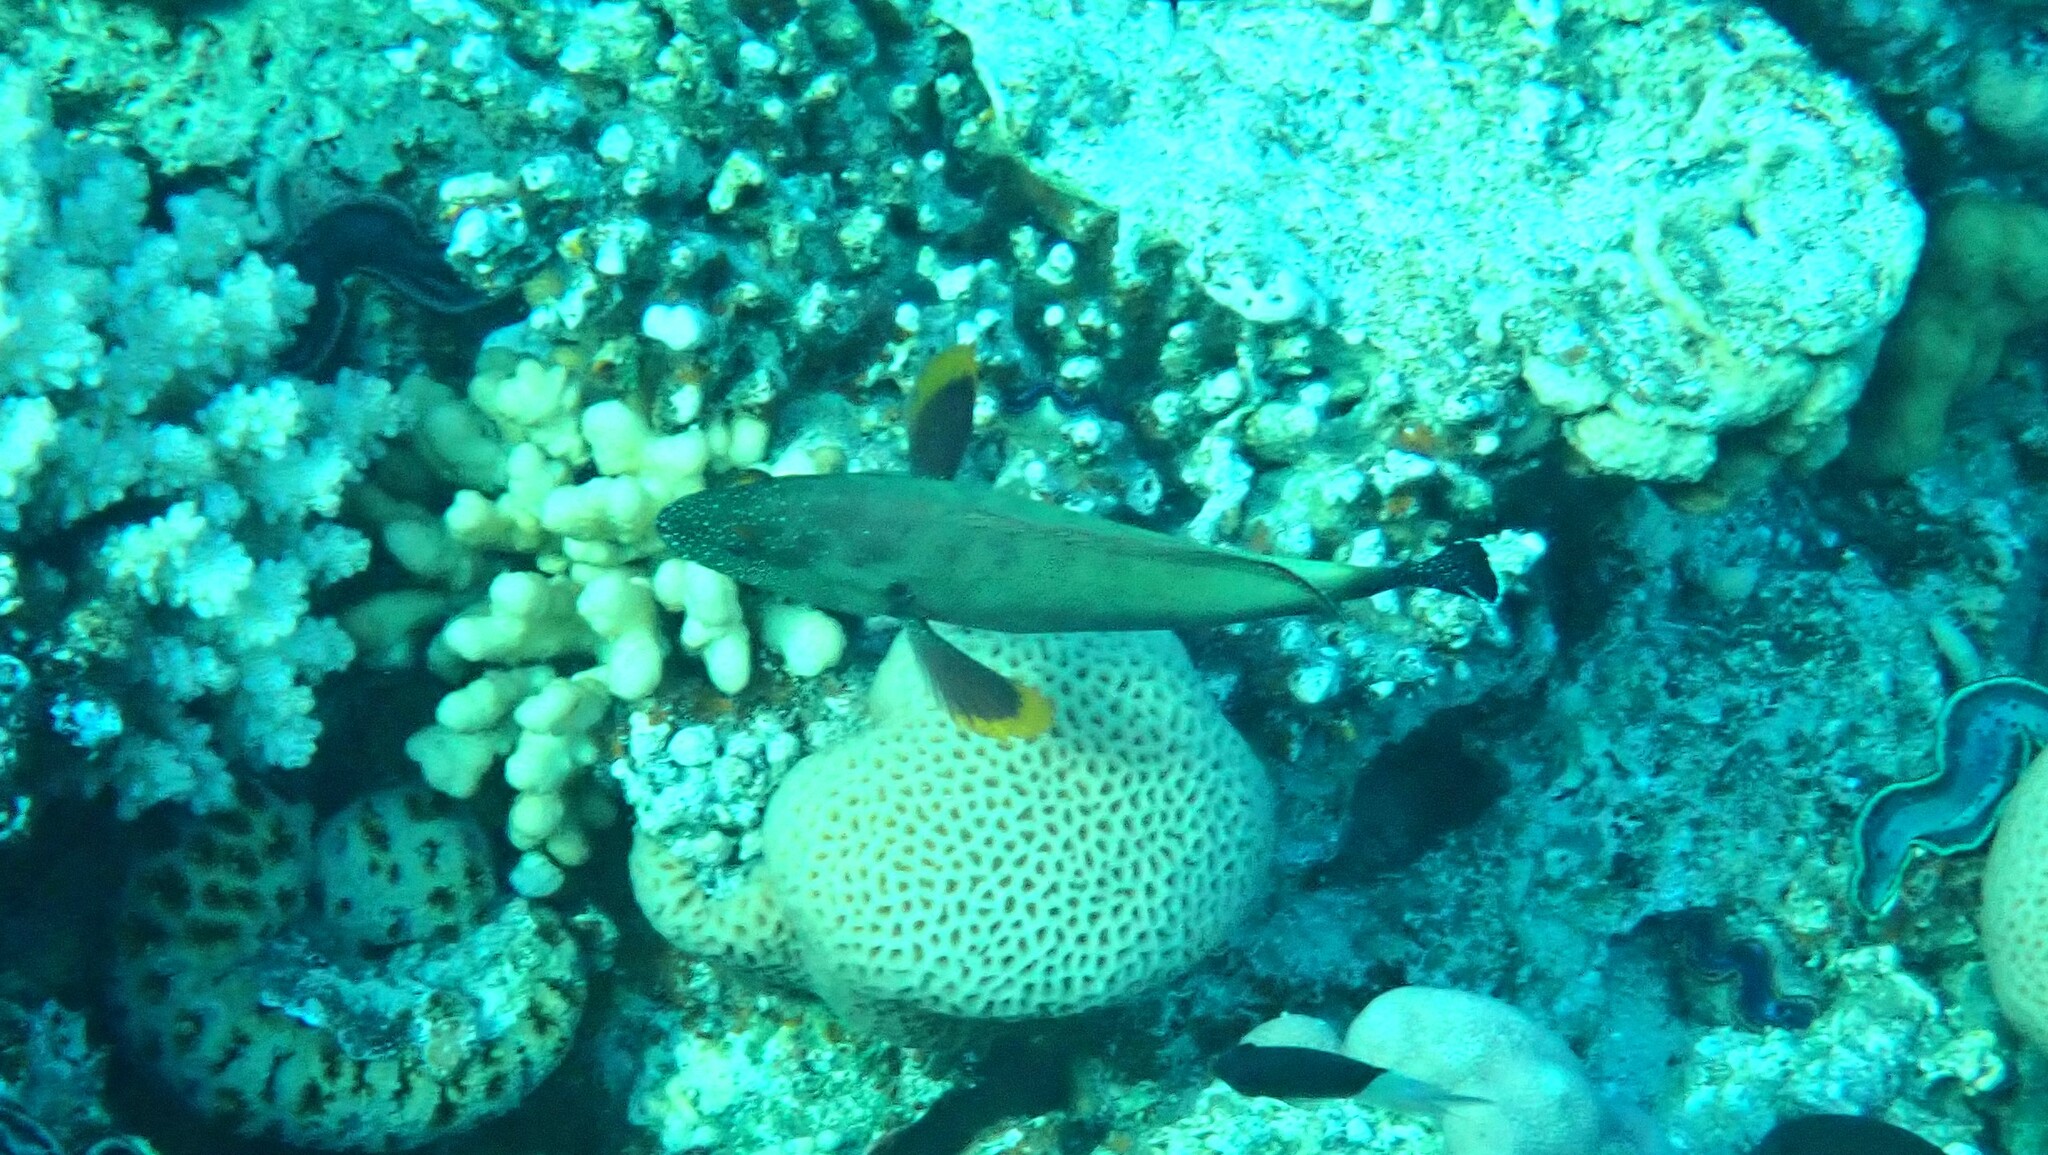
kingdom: Animalia
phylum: Chordata
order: Perciformes
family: Serranidae
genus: Cephalopholis
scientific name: Cephalopholis hemistiktos
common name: Halfspotted hind
